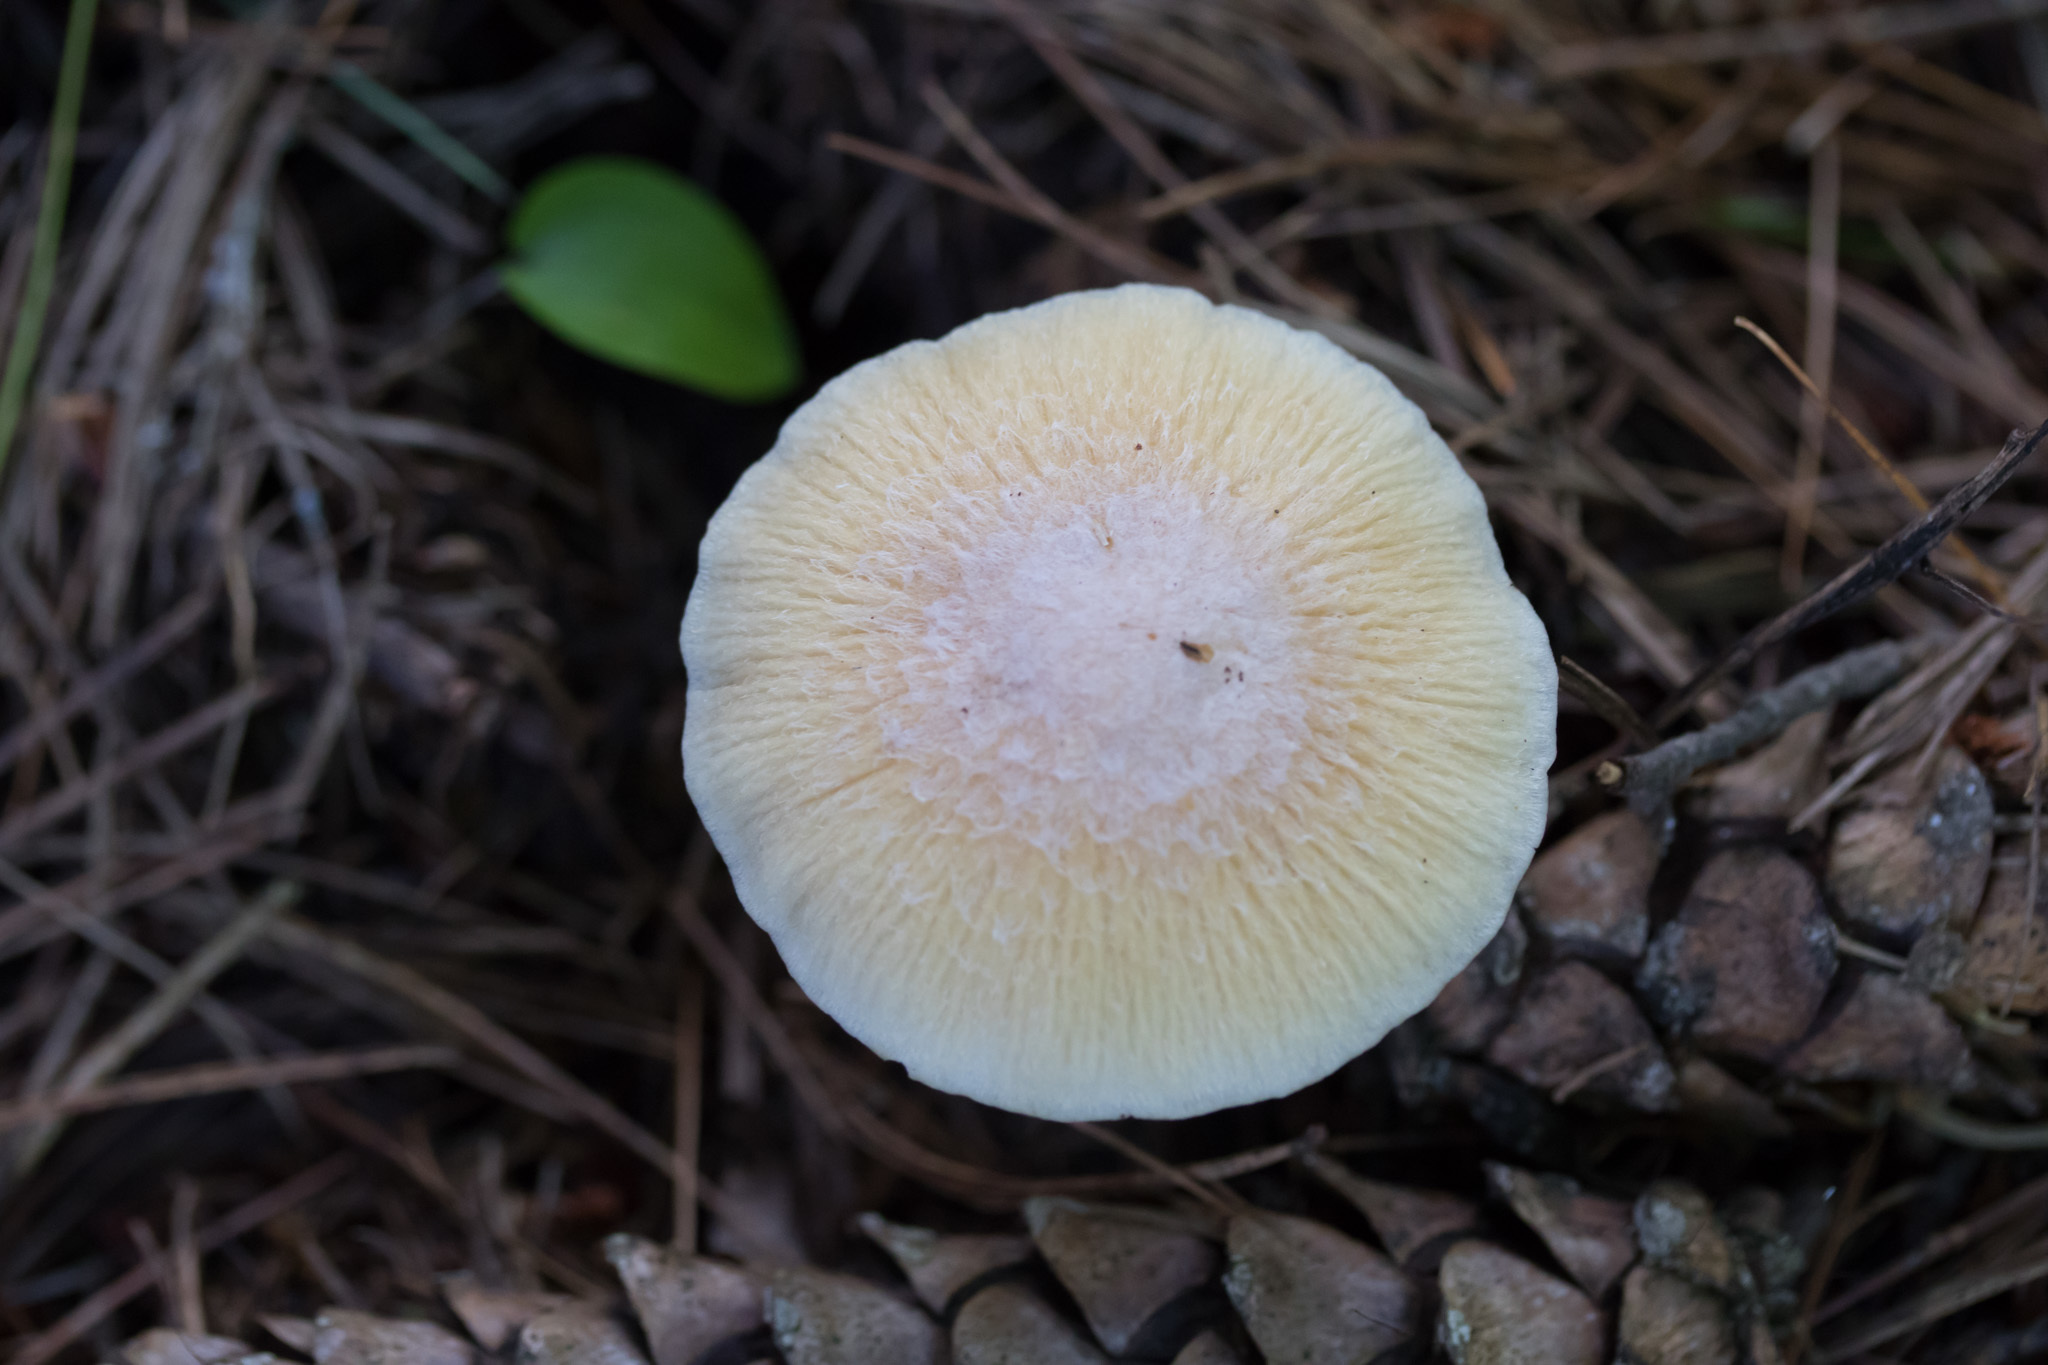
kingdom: Fungi
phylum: Basidiomycota
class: Agaricomycetes
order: Agaricales
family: Cortinariaceae
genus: Cortinarius
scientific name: Cortinarius caperatus
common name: The gypsy
